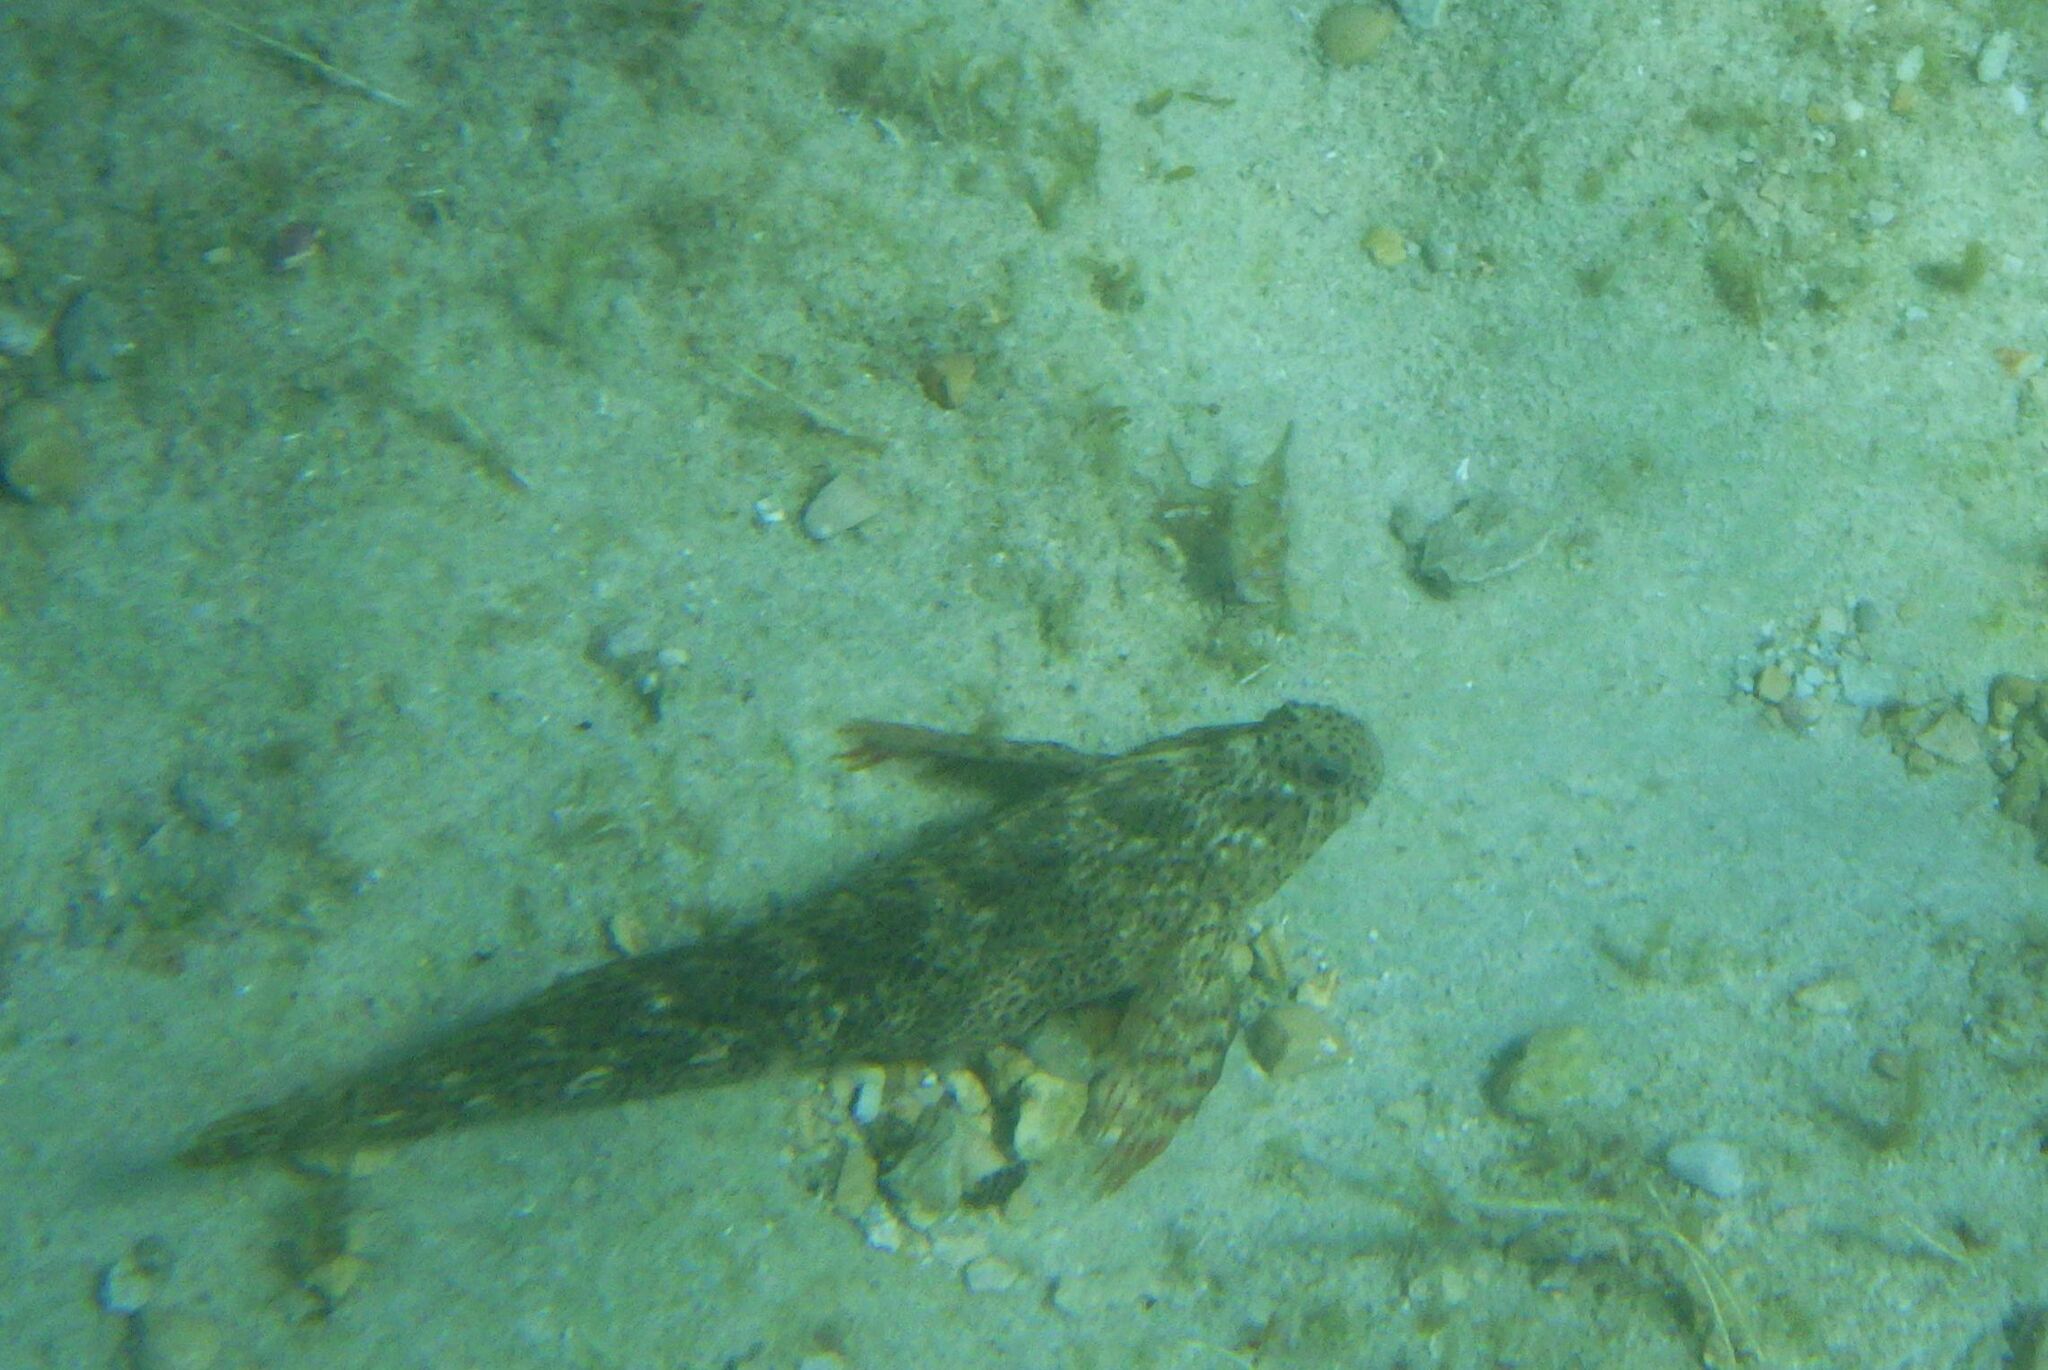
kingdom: Animalia
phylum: Chordata
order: Perciformes
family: Blenniidae
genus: Parablennius
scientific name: Parablennius sanguinolentus
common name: Black sea blenny
